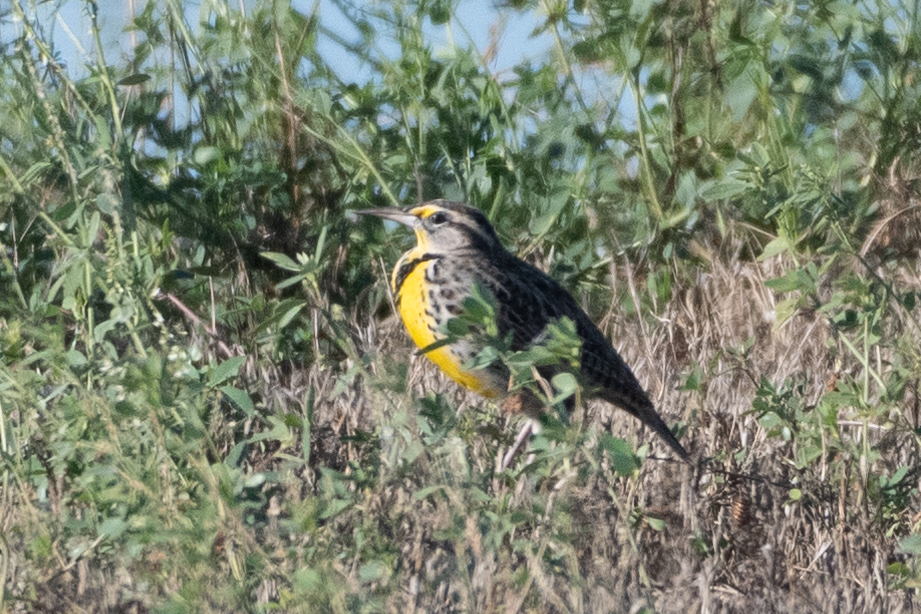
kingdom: Animalia
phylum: Chordata
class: Aves
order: Passeriformes
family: Icteridae
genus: Sturnella
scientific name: Sturnella neglecta
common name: Western meadowlark
